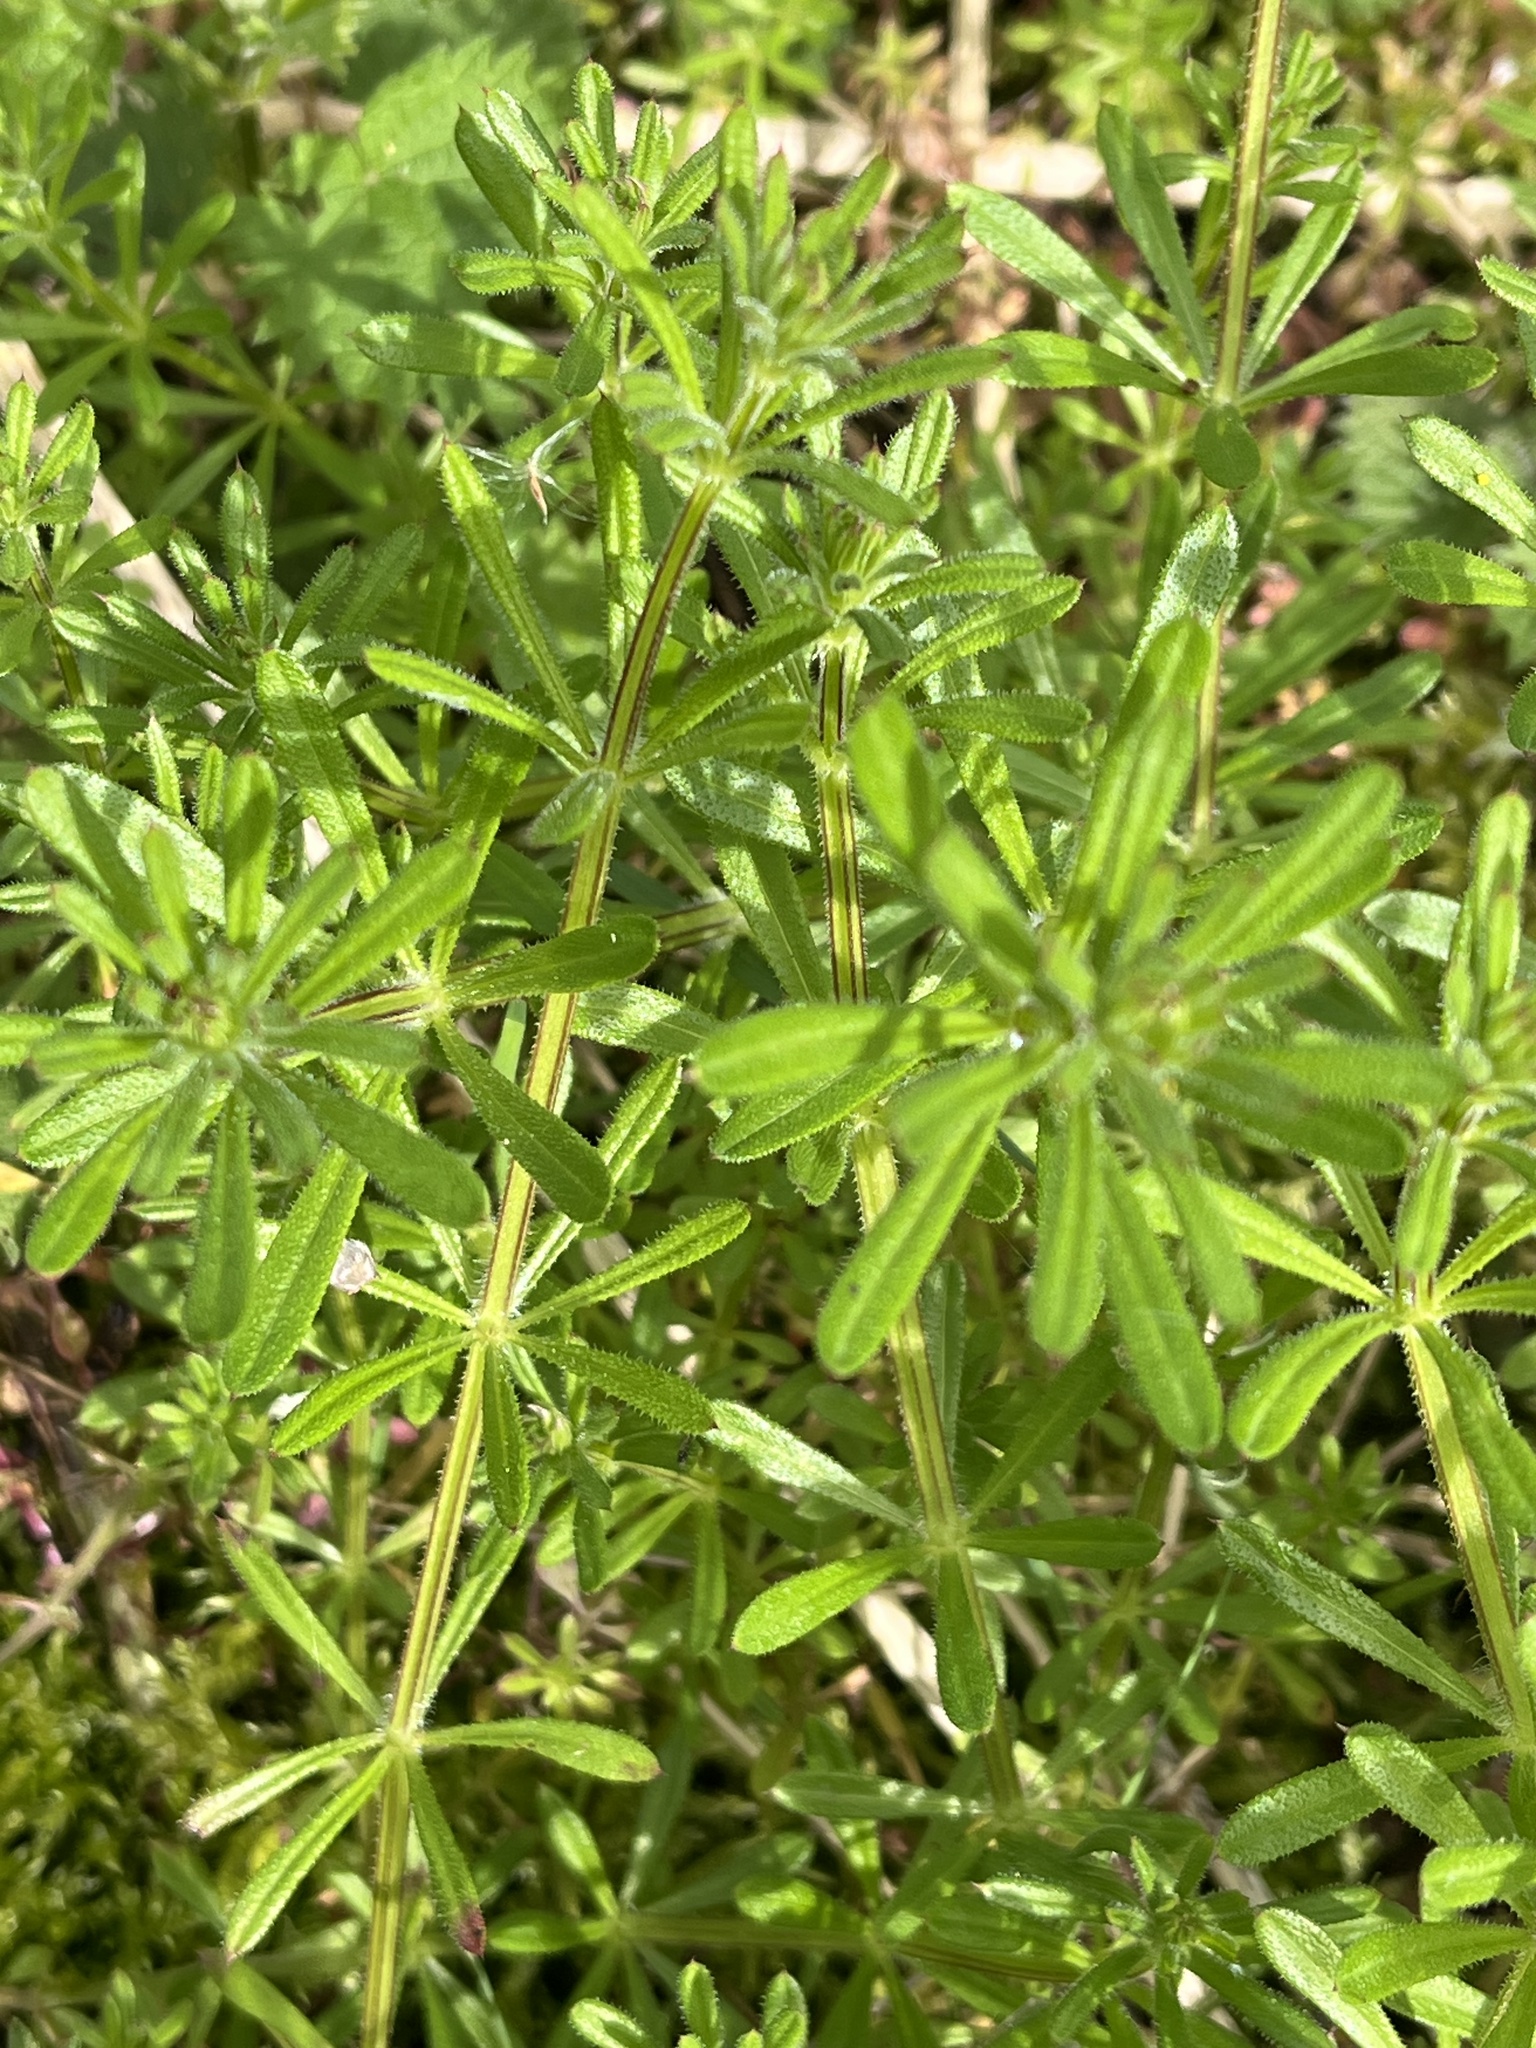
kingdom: Plantae
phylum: Tracheophyta
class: Magnoliopsida
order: Gentianales
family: Rubiaceae
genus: Galium
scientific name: Galium aparine
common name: Cleavers
